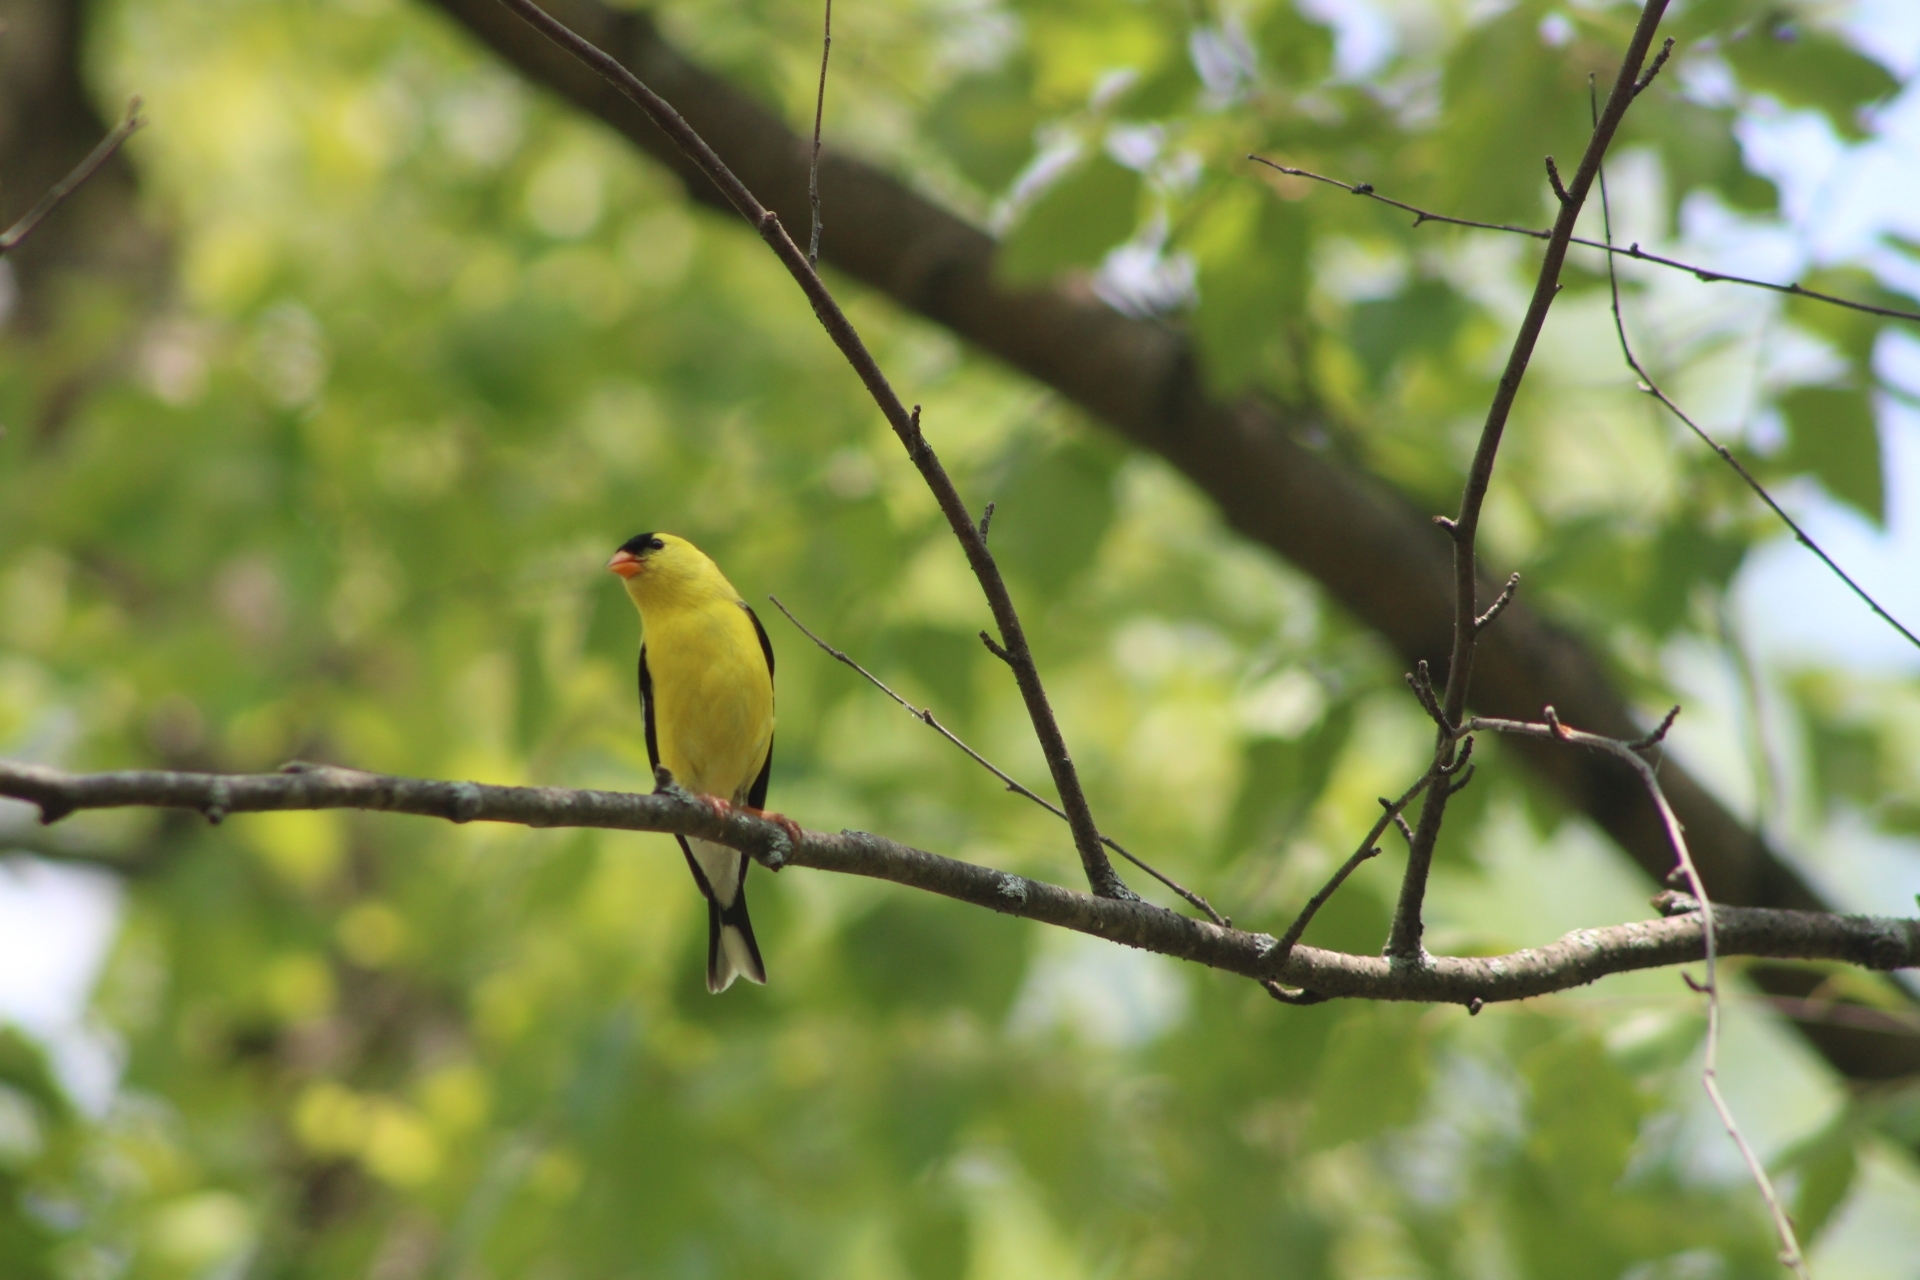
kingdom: Animalia
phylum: Chordata
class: Aves
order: Passeriformes
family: Fringillidae
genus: Spinus
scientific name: Spinus tristis
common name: American goldfinch
